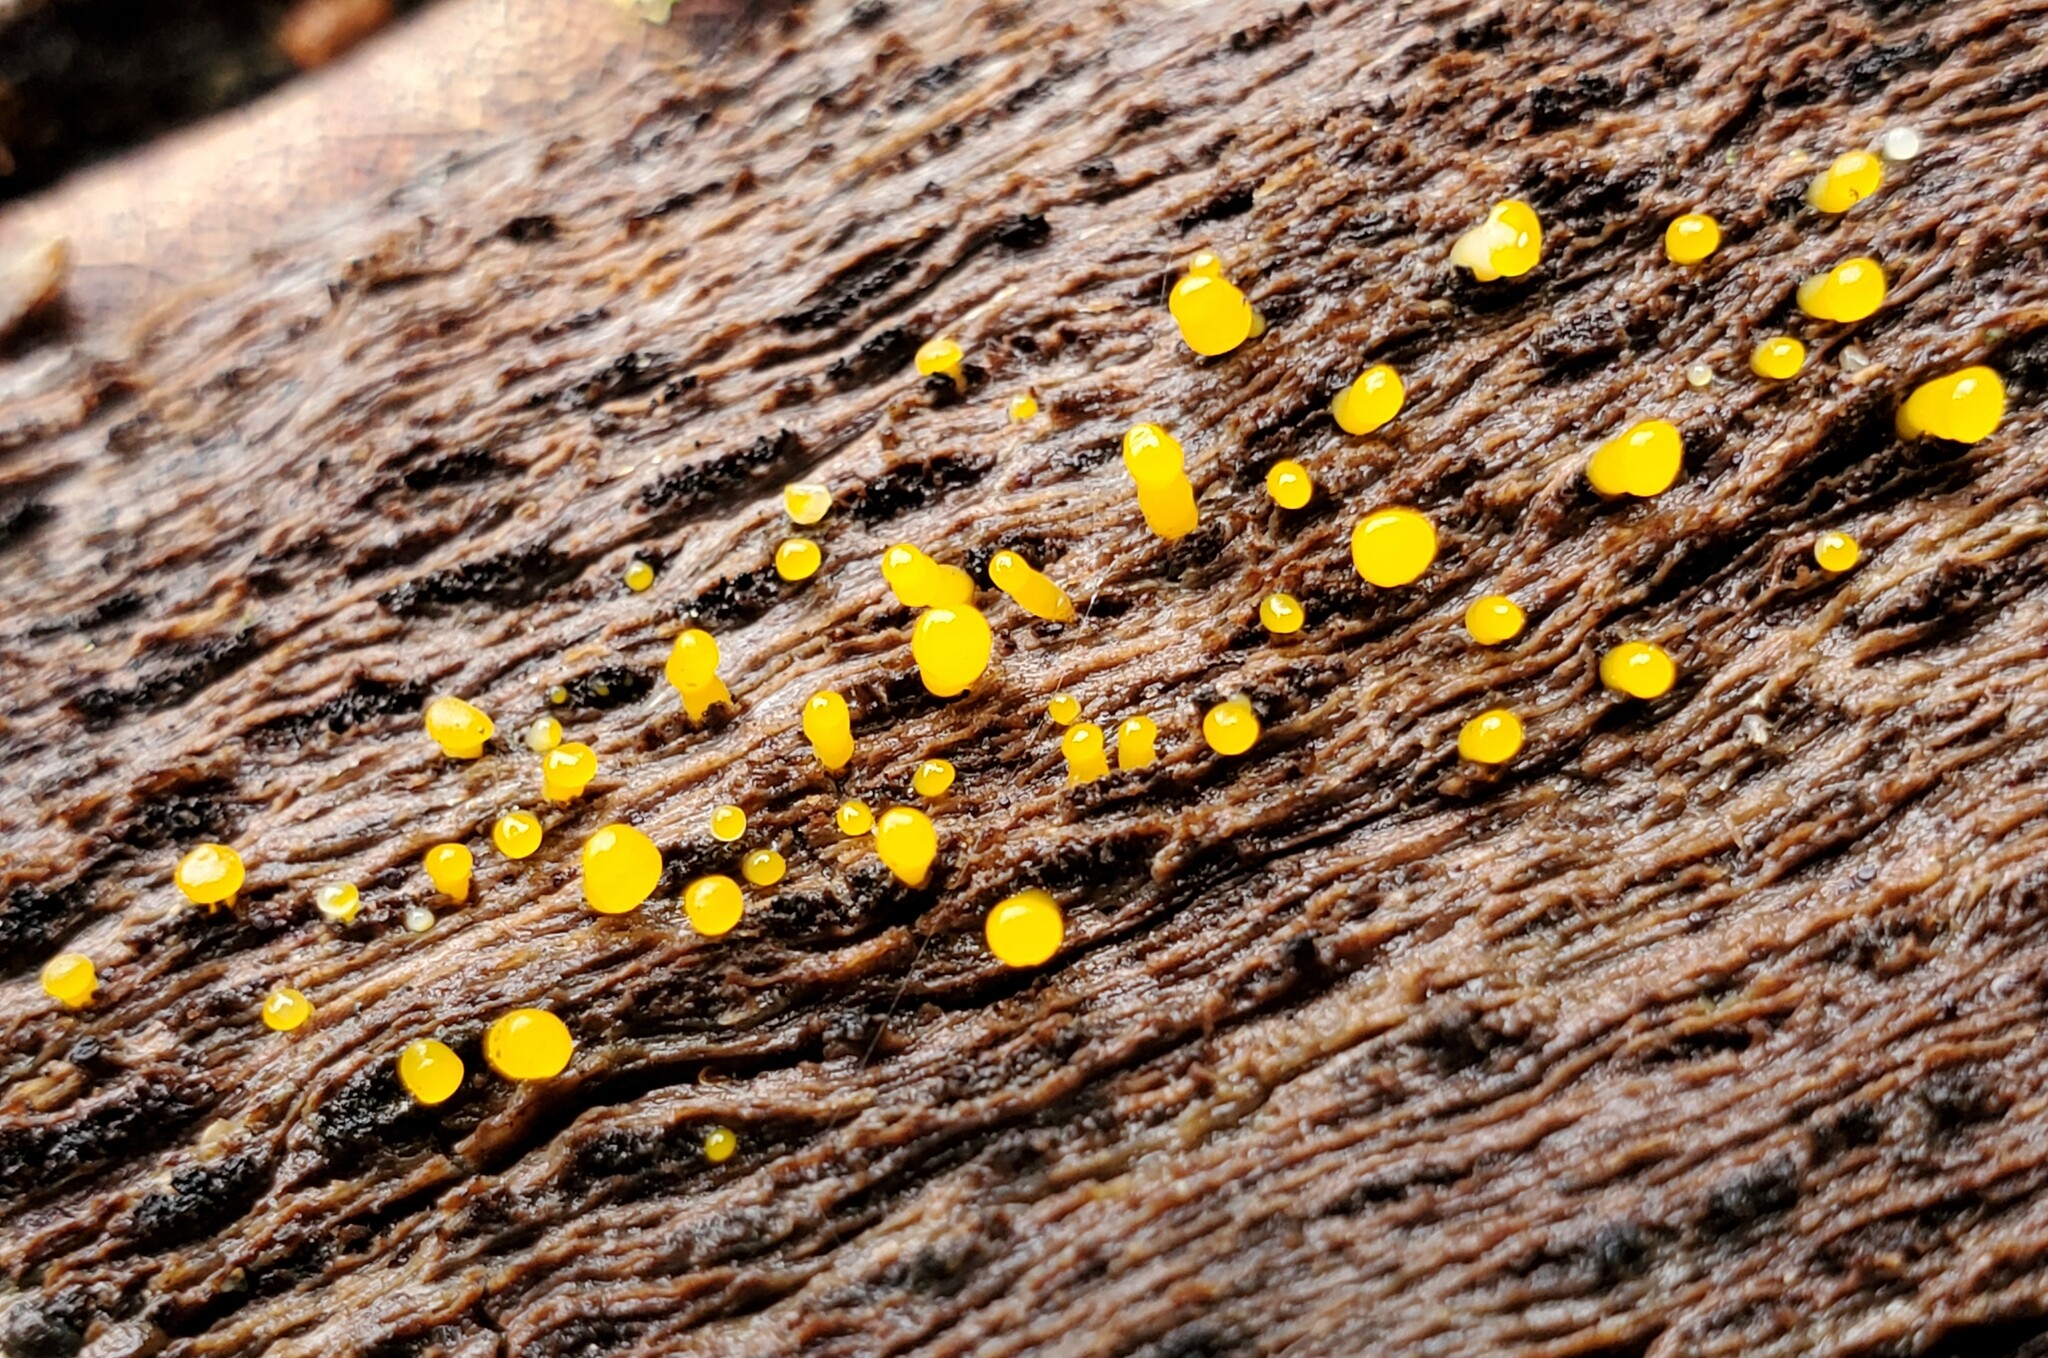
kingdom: Fungi
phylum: Basidiomycota
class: Dacrymycetes
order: Dacrymycetales
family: Dacrymycetaceae
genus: Calocera
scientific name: Calocera cornea
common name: Small stagshorn
